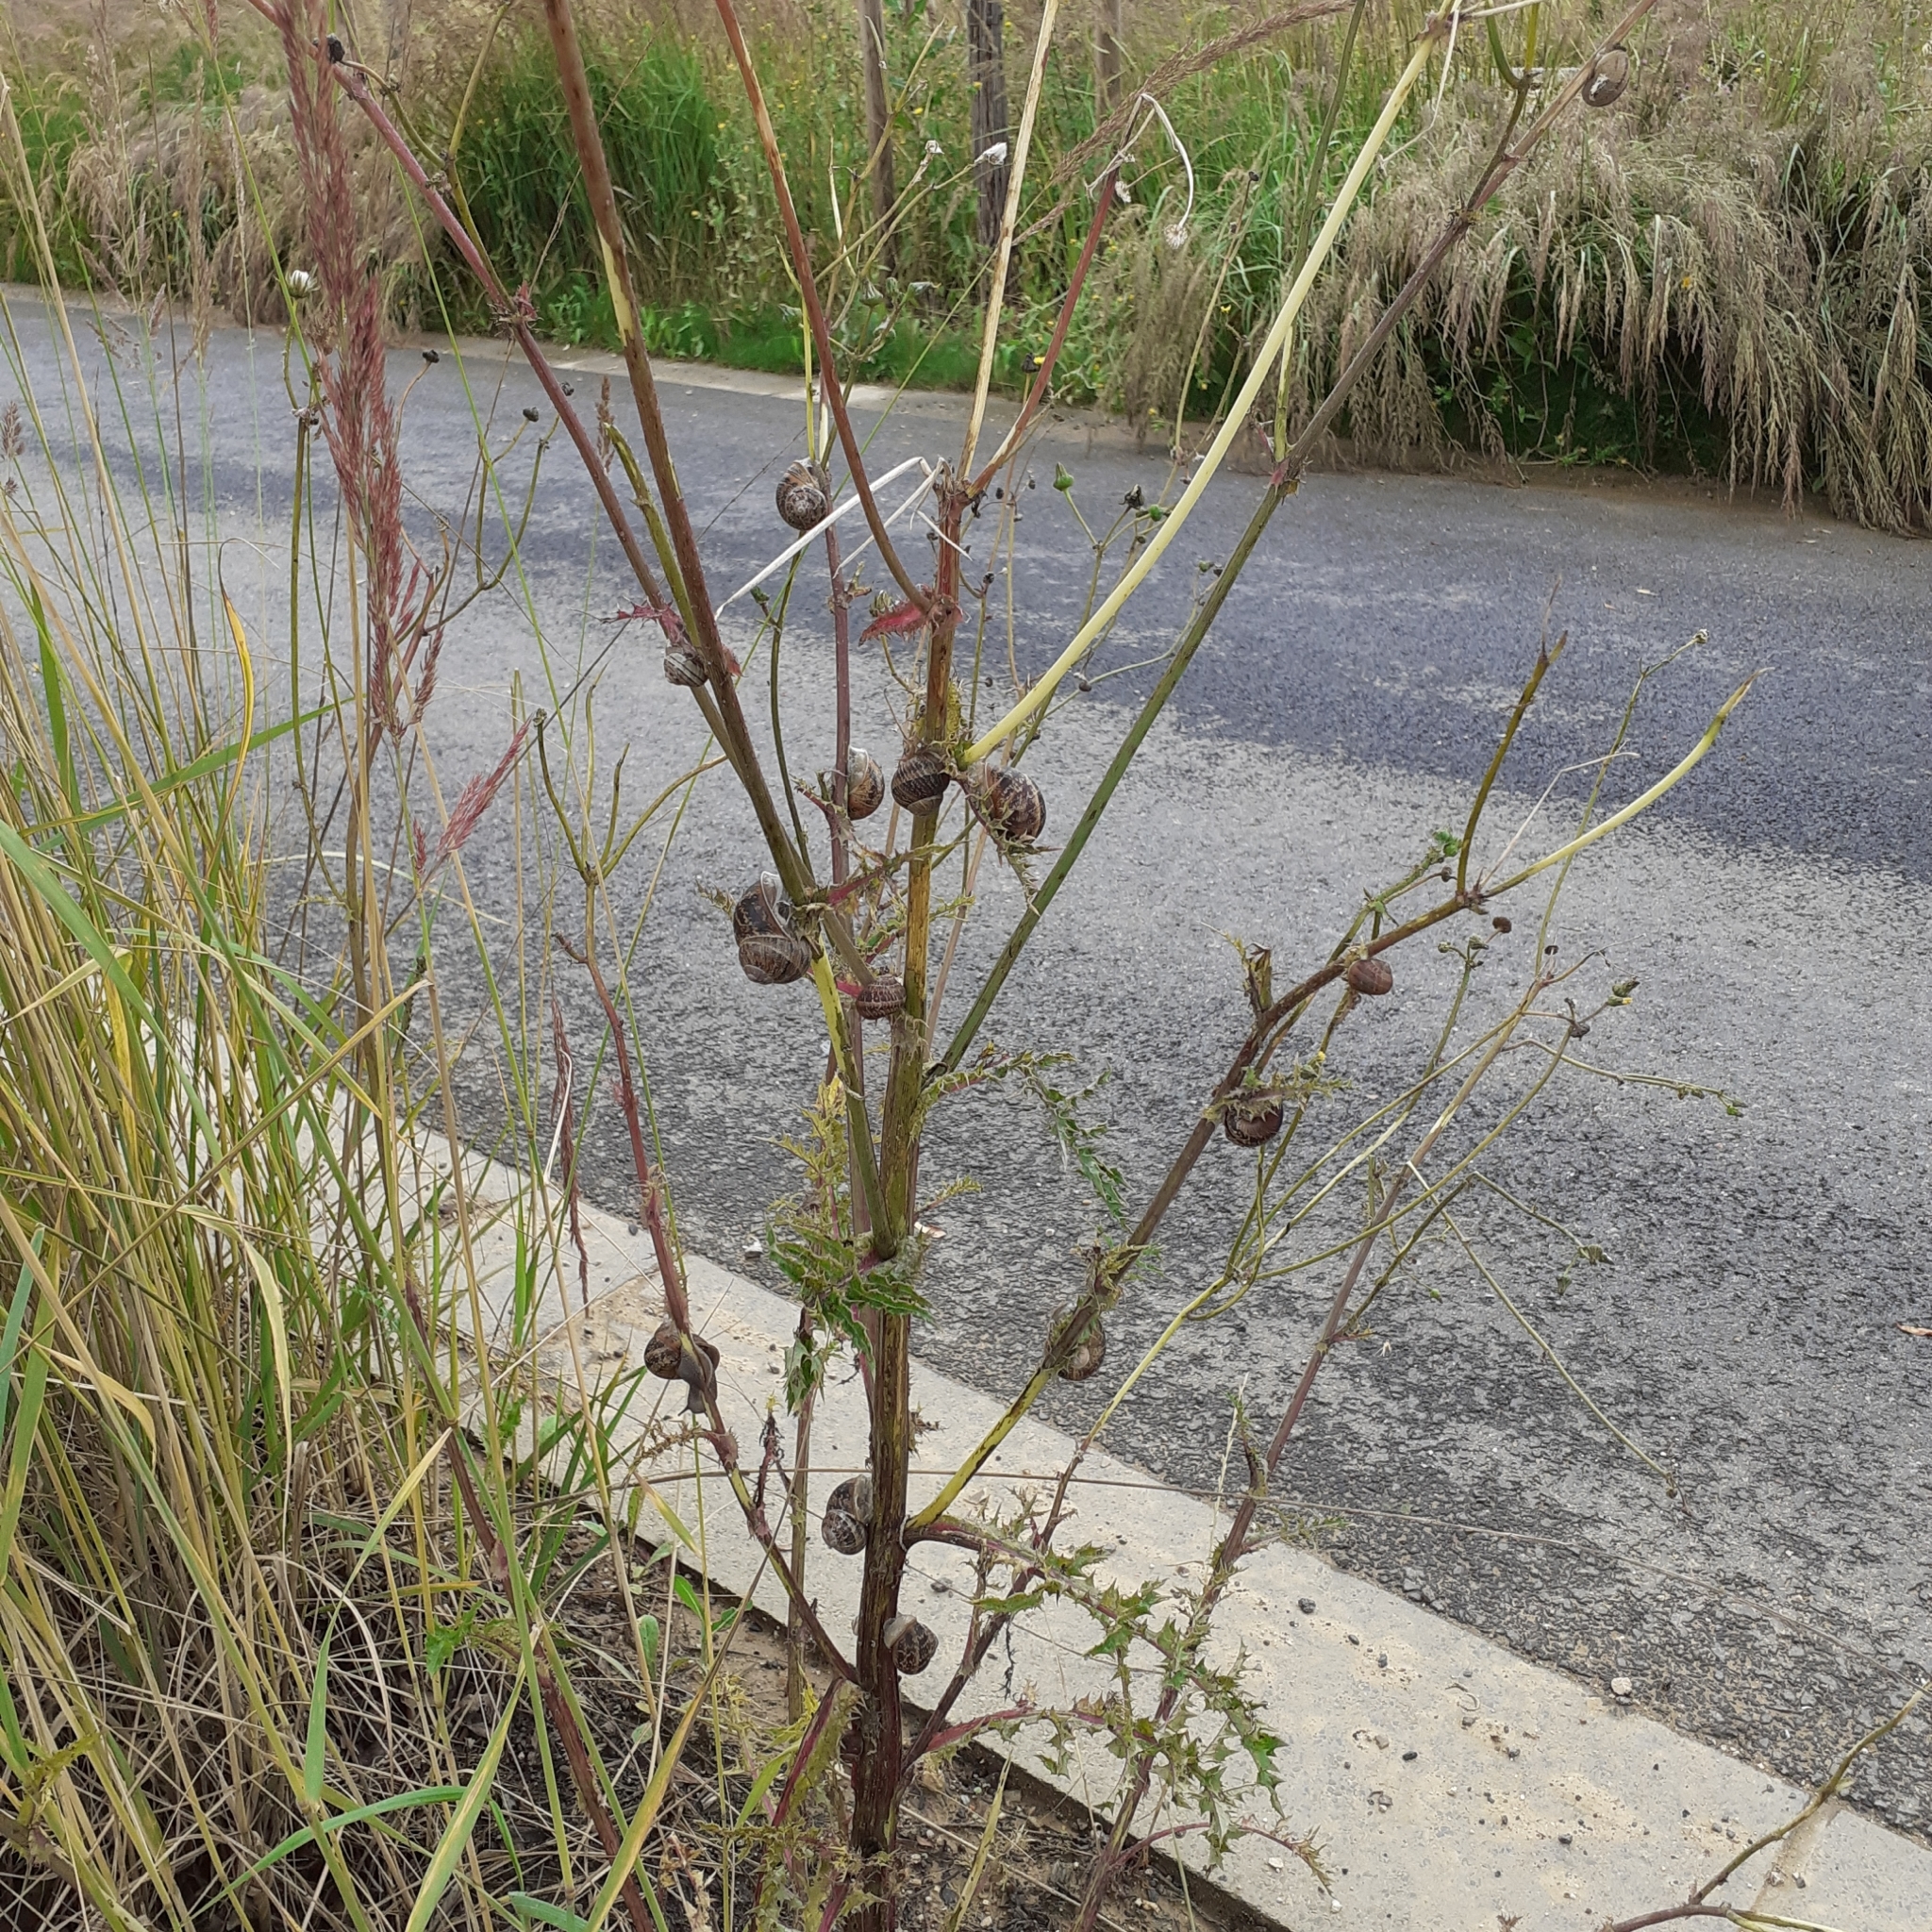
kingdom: Animalia
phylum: Mollusca
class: Gastropoda
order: Stylommatophora
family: Helicidae
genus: Cornu
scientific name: Cornu aspersum
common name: Brown garden snail
